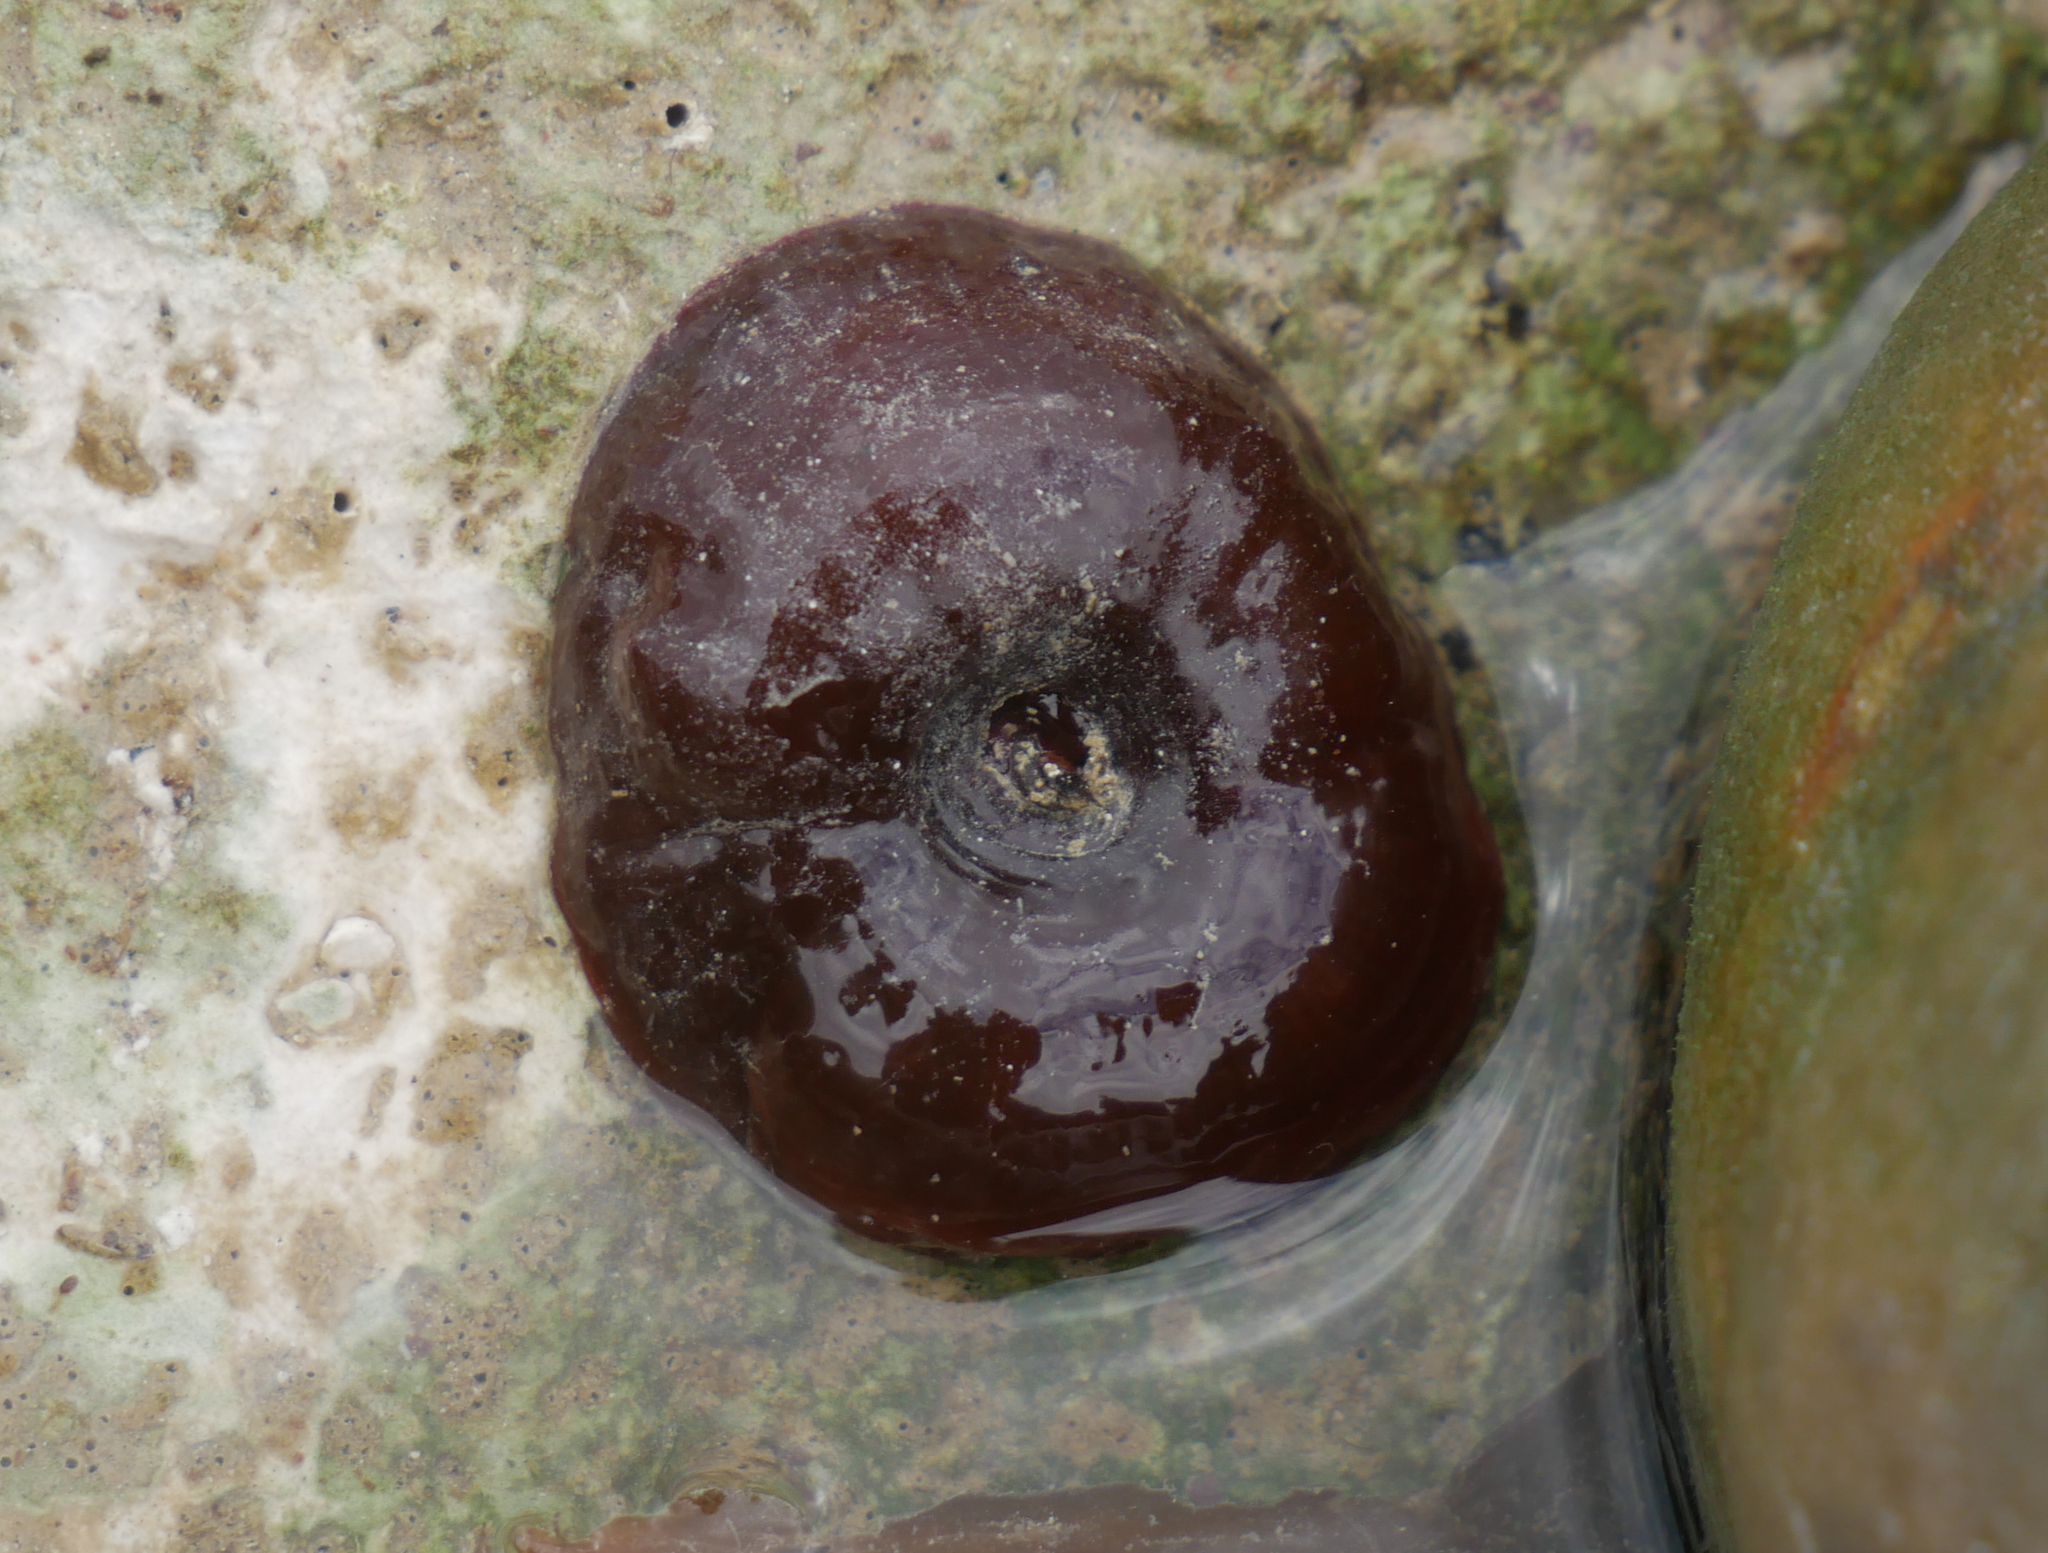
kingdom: Animalia
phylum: Cnidaria
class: Anthozoa
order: Actiniaria
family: Actiniidae
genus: Actinia
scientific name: Actinia equina
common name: Beadlet anemone
